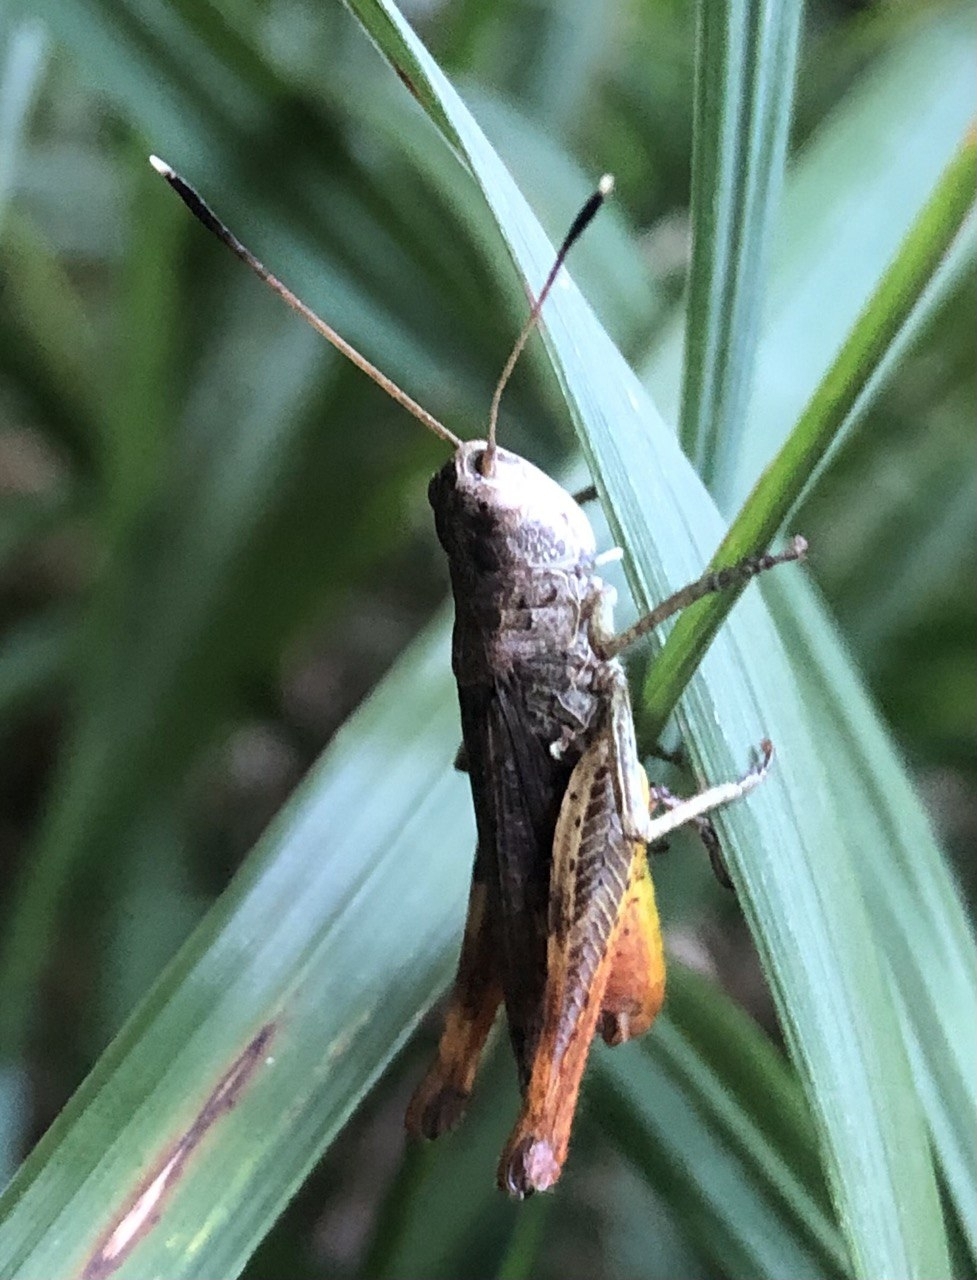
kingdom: Animalia
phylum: Arthropoda
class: Insecta
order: Orthoptera
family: Acrididae
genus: Gomphocerippus
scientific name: Gomphocerippus rufus
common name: Rufous grasshopper
